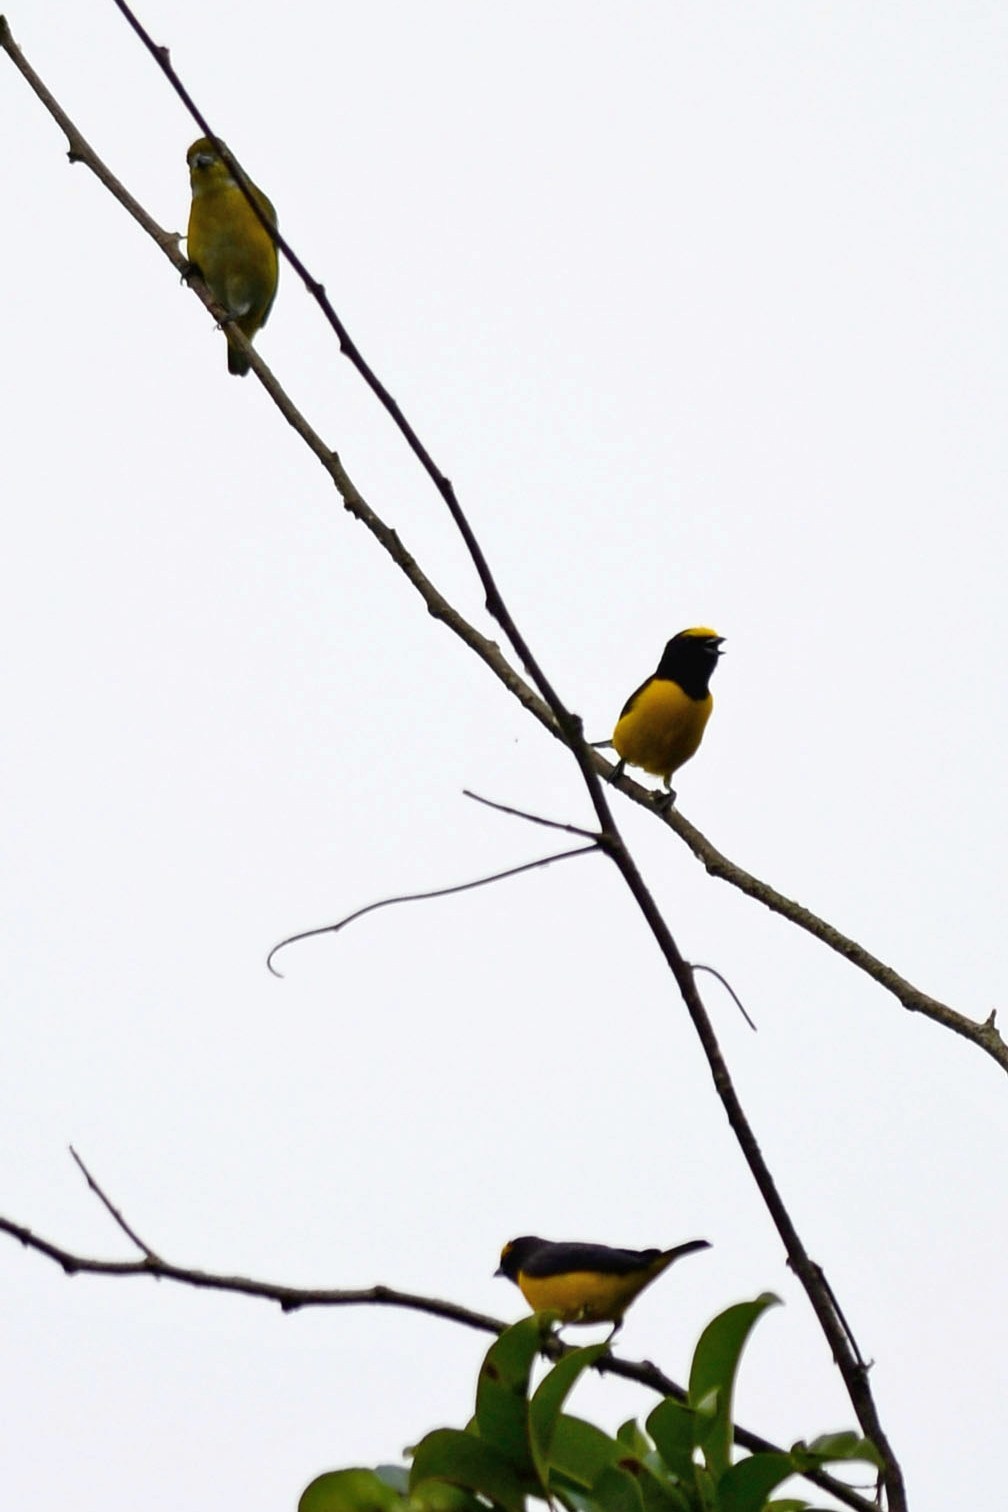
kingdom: Animalia
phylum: Chordata
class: Aves
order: Passeriformes
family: Fringillidae
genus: Euphonia
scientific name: Euphonia affinis
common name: Scrub euphonia
